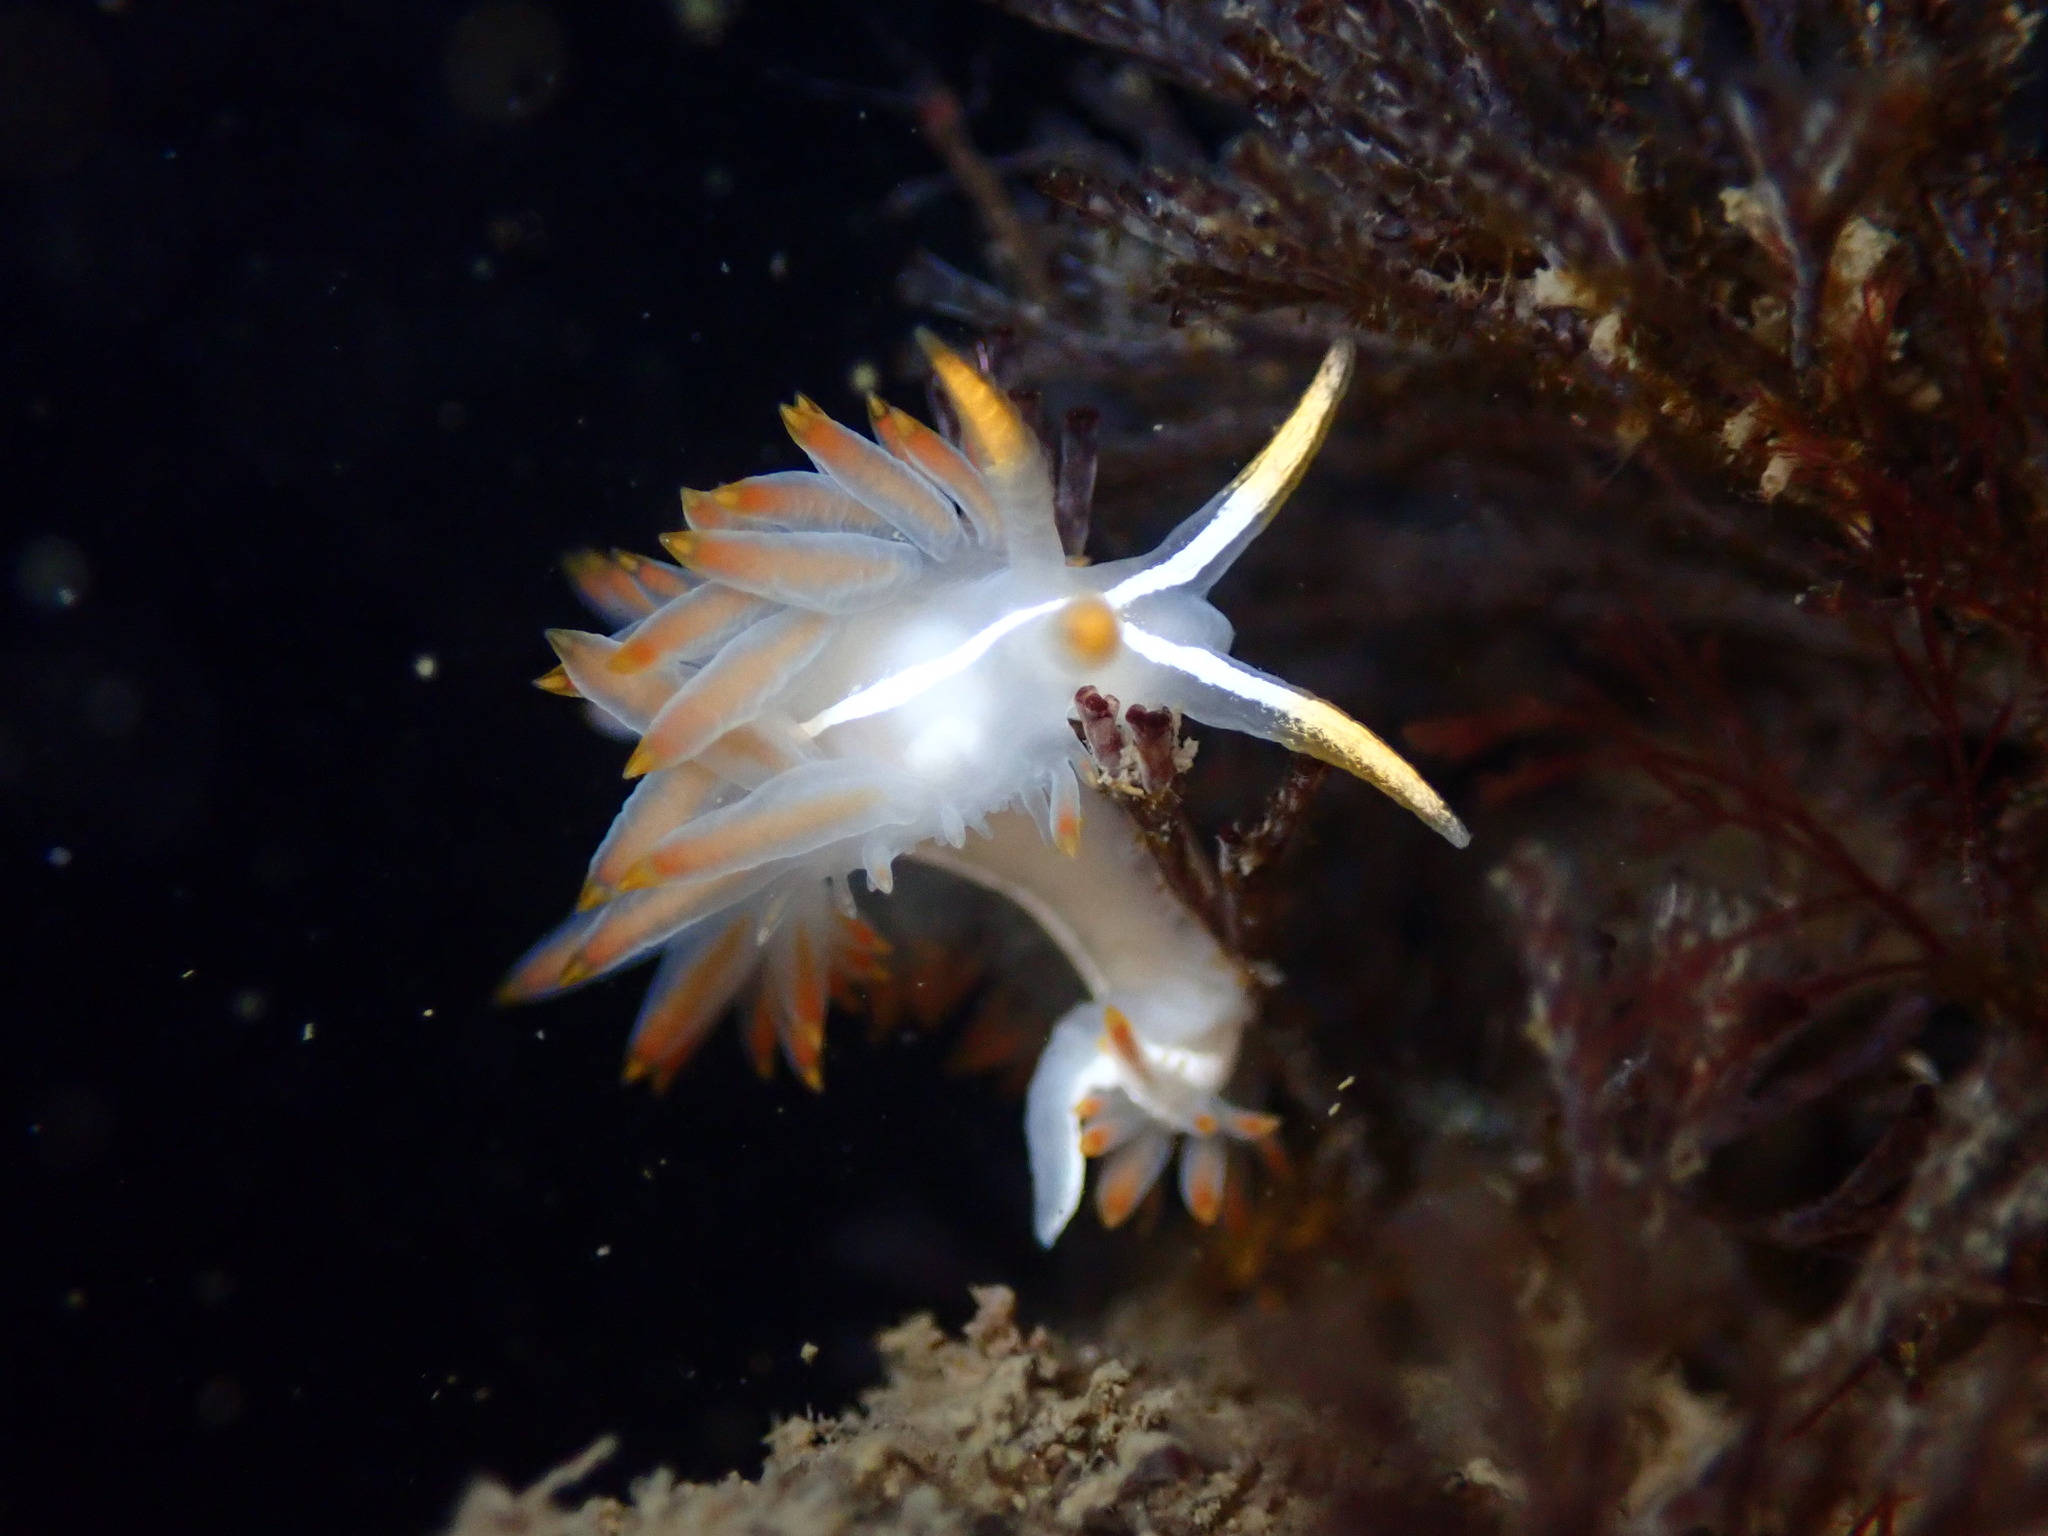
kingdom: Animalia
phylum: Mollusca
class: Gastropoda
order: Nudibranchia
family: Coryphellidae
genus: Coryphella
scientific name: Coryphella trilineata
